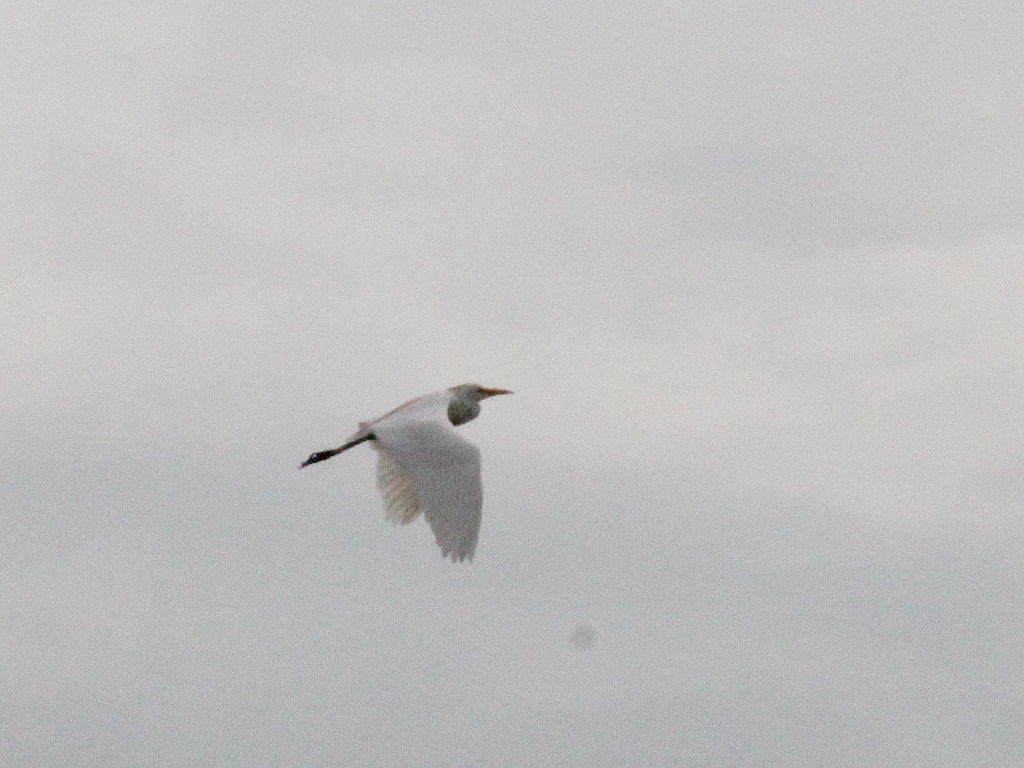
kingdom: Animalia
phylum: Chordata
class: Aves
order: Pelecaniformes
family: Ardeidae
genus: Bubulcus
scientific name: Bubulcus ibis
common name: Cattle egret
